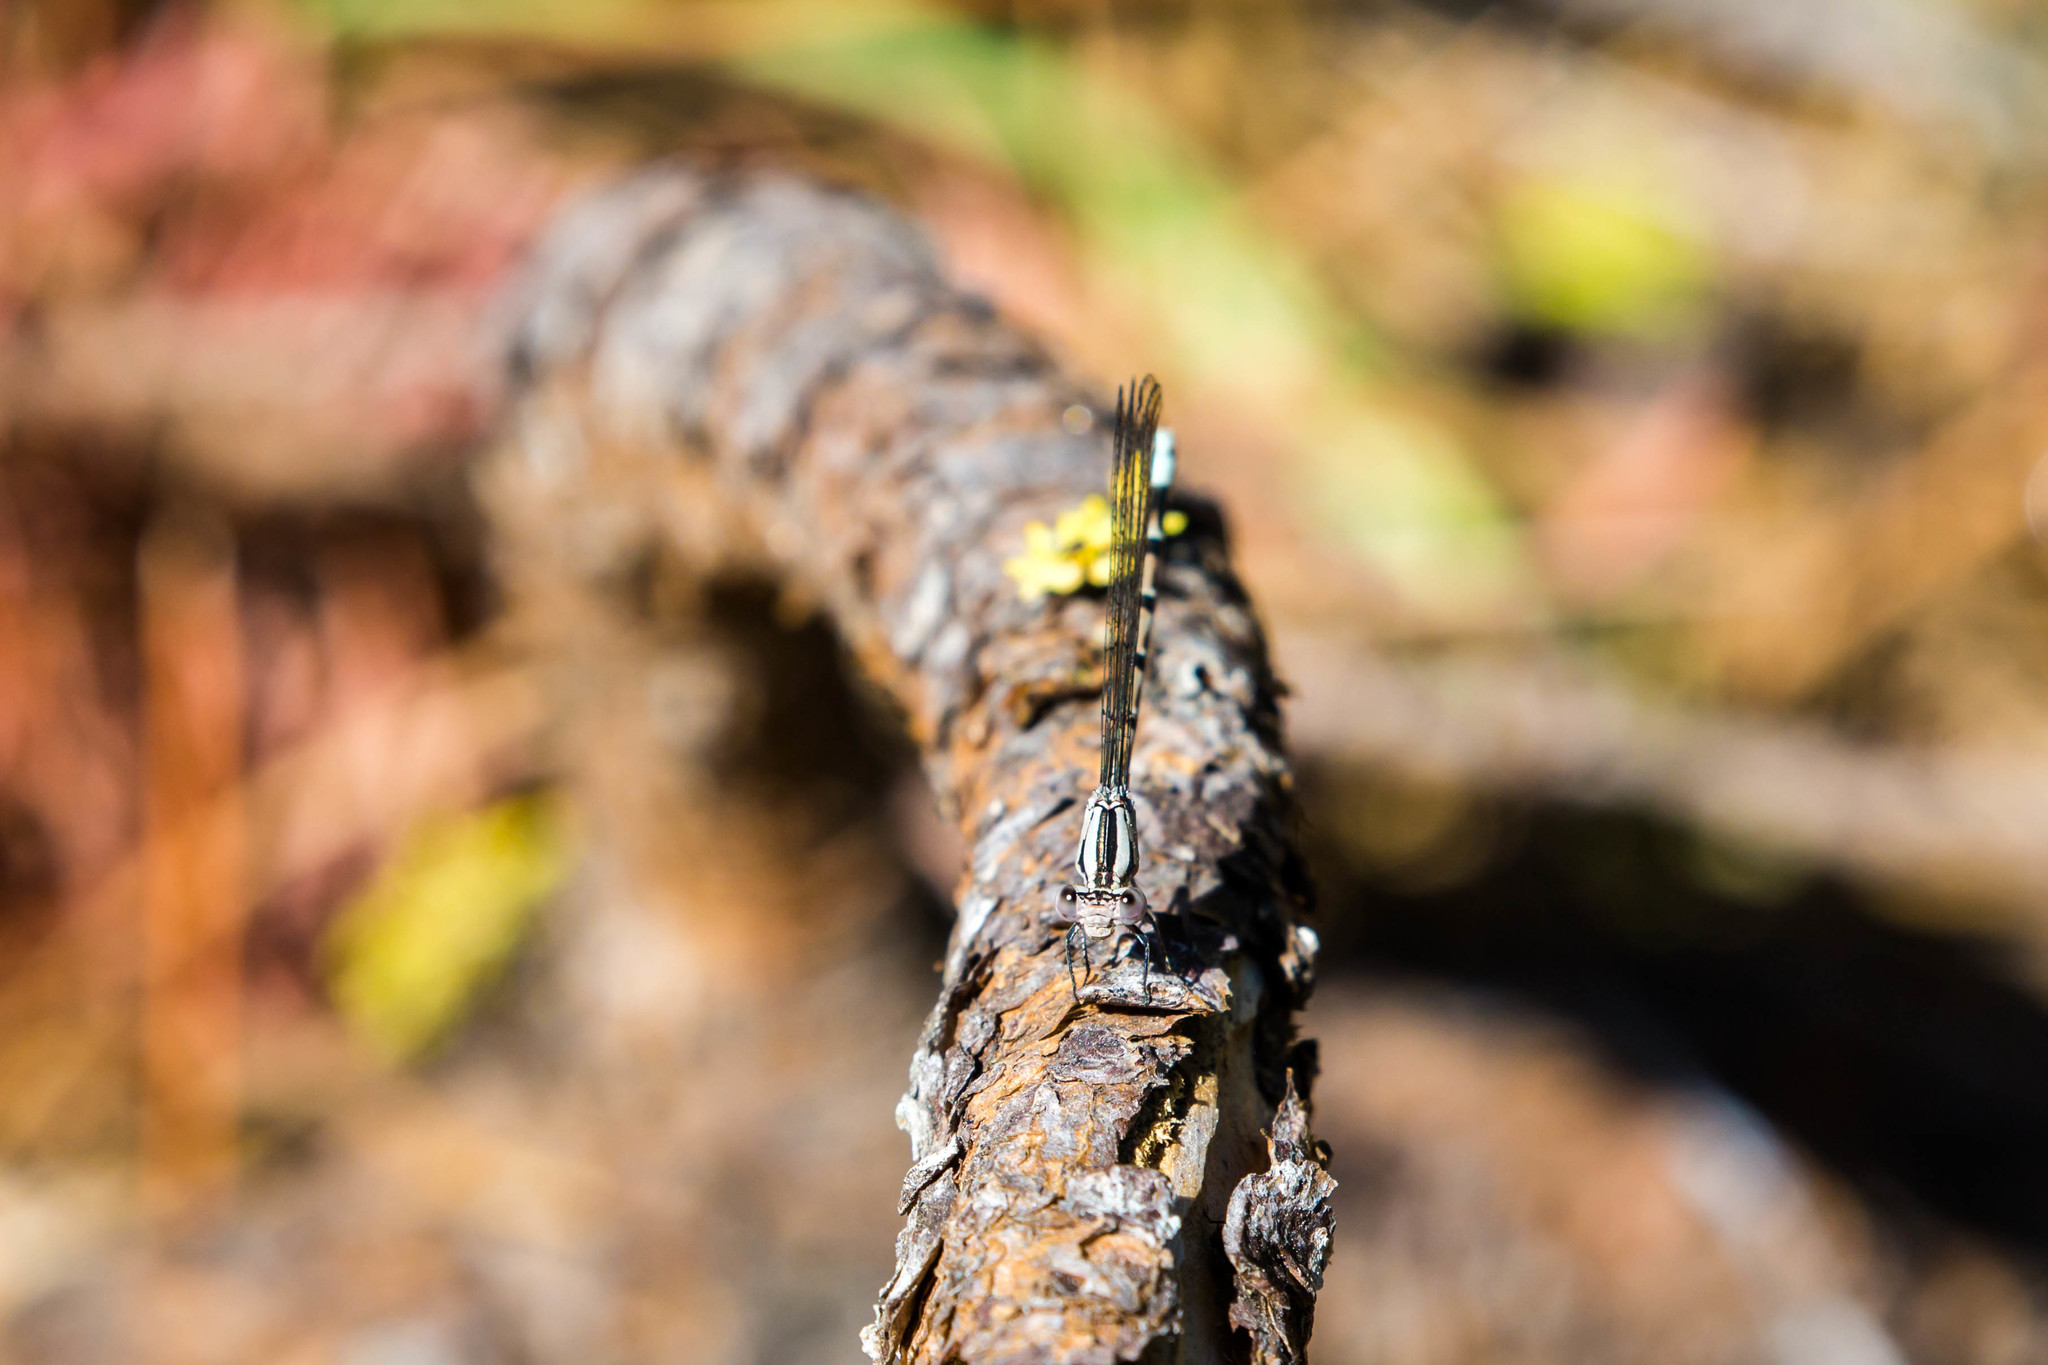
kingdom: Animalia
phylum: Arthropoda
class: Insecta
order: Odonata
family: Coenagrionidae
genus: Argia
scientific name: Argia vivida
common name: Vivid dancer
